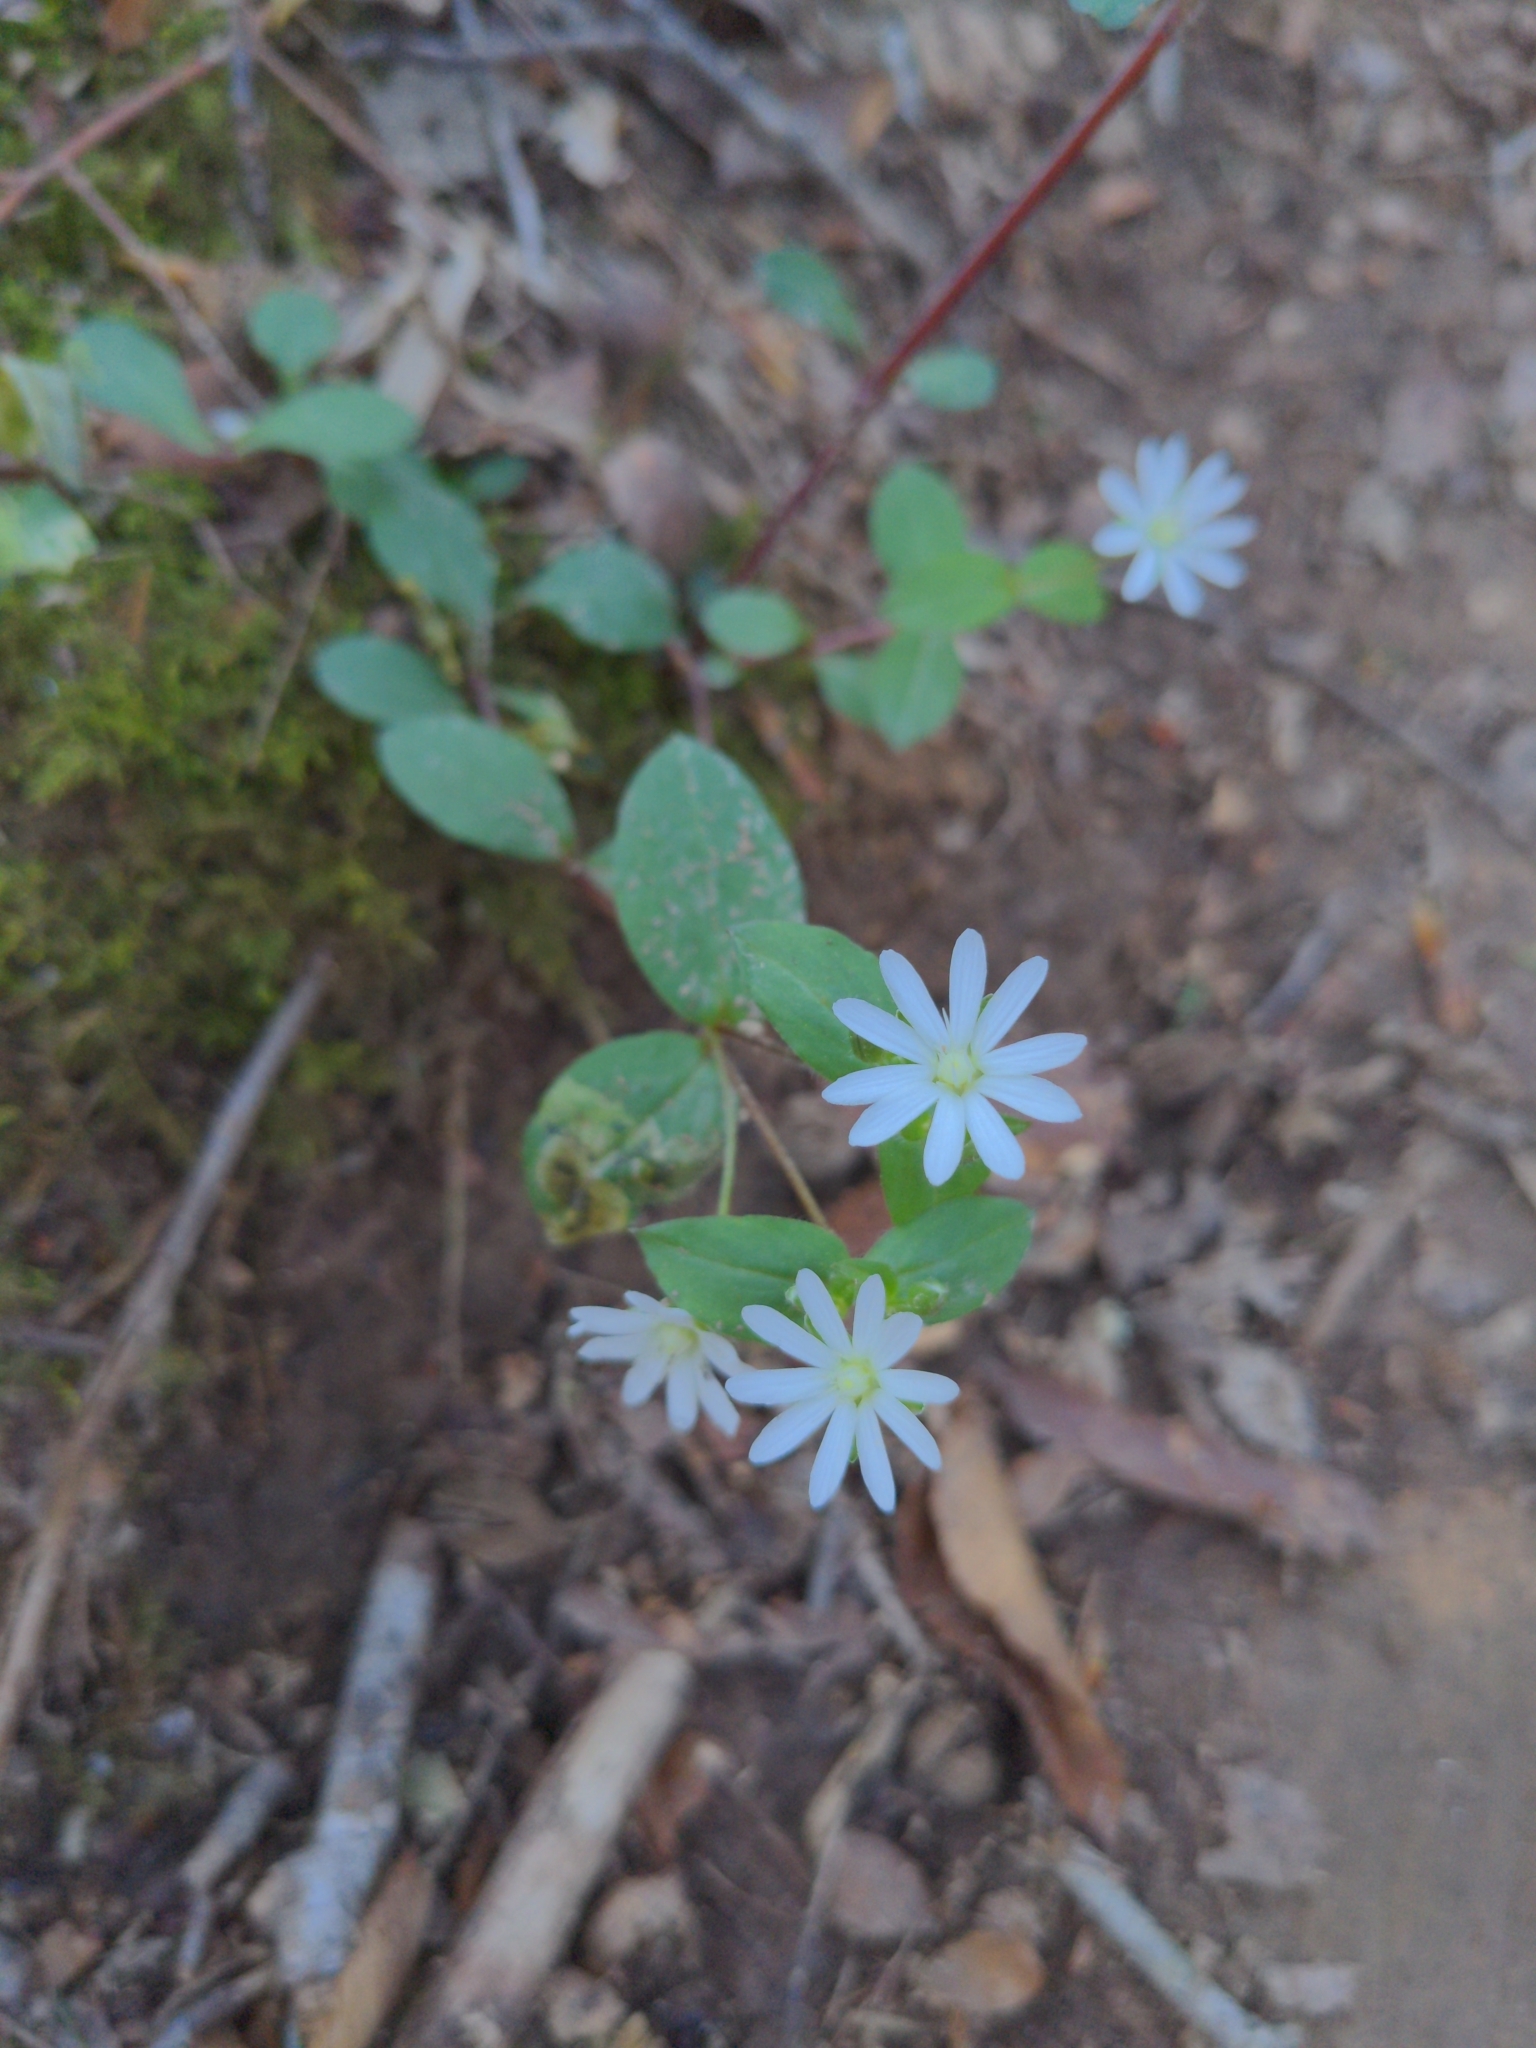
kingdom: Plantae
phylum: Tracheophyta
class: Magnoliopsida
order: Caryophyllales
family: Caryophyllaceae
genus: Stellaria
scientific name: Stellaria pubera
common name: Star chickweed
